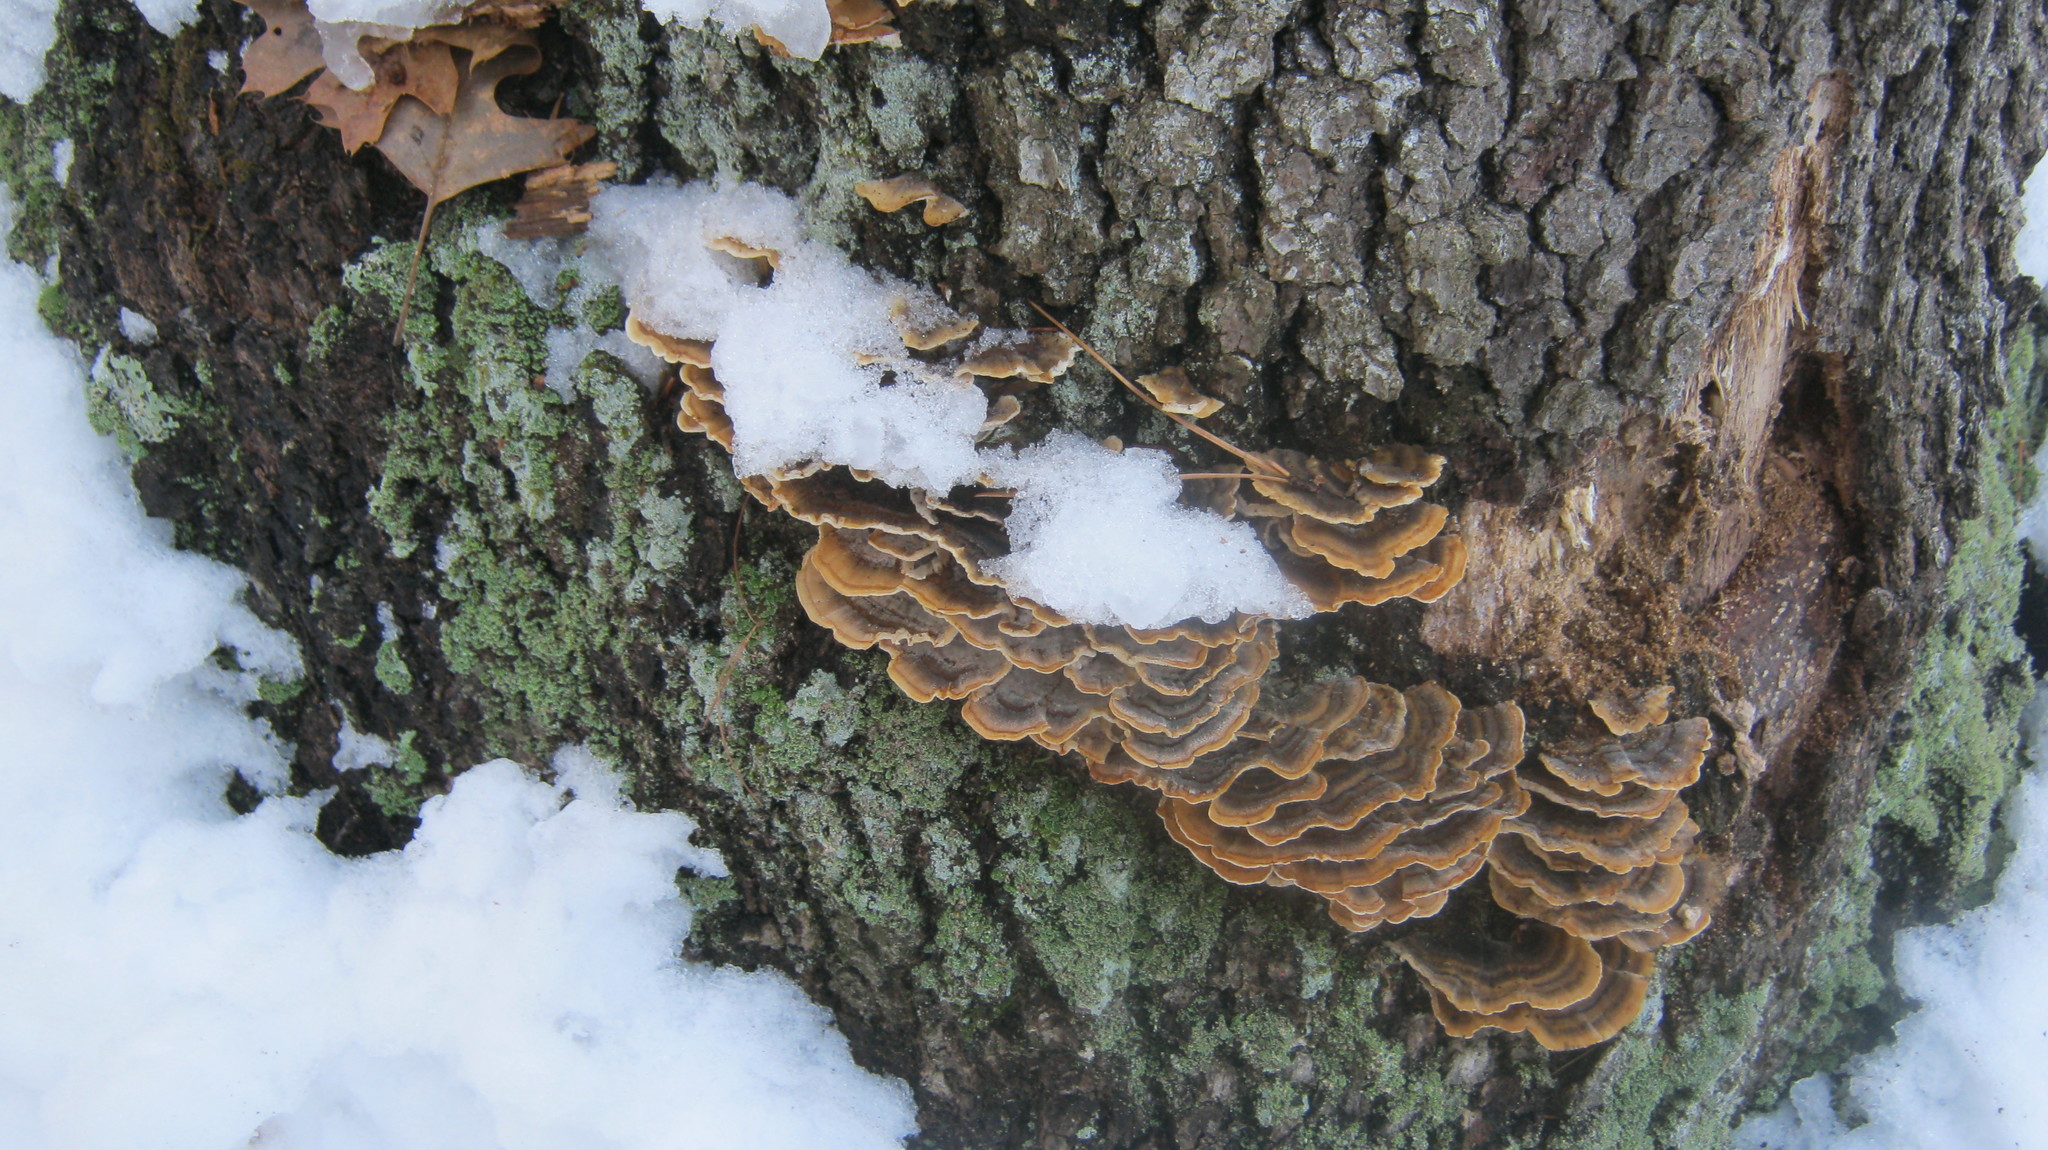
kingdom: Fungi
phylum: Basidiomycota
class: Agaricomycetes
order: Polyporales
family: Polyporaceae
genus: Trametes
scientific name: Trametes versicolor
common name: Turkeytail
